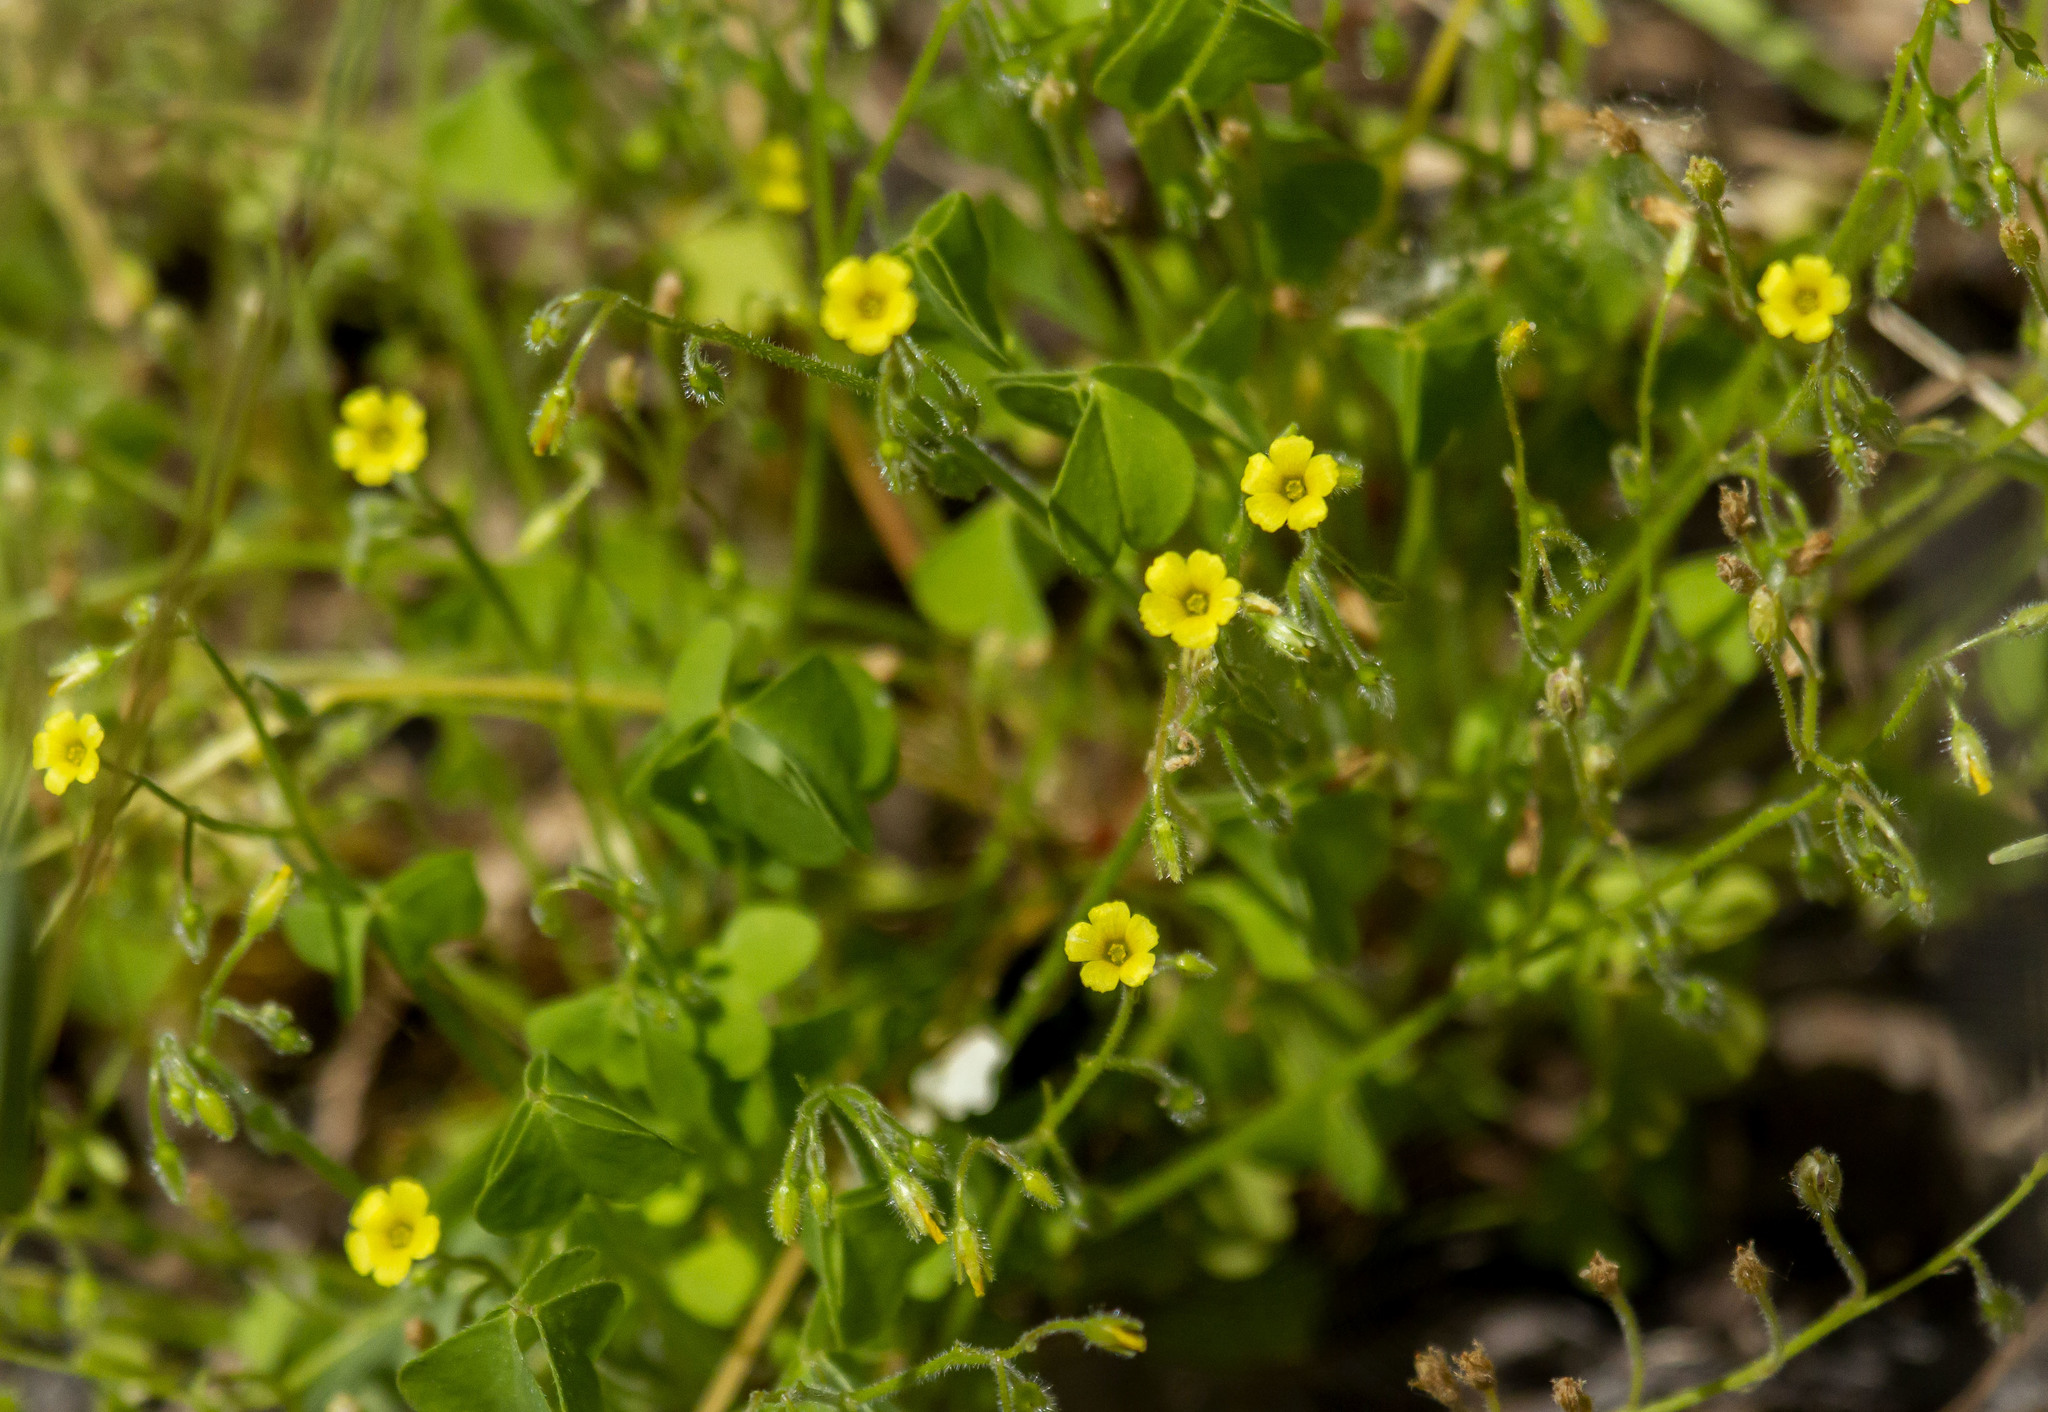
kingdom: Plantae
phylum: Tracheophyta
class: Magnoliopsida
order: Oxalidales
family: Oxalidaceae
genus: Oxalis
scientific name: Oxalis laxa
